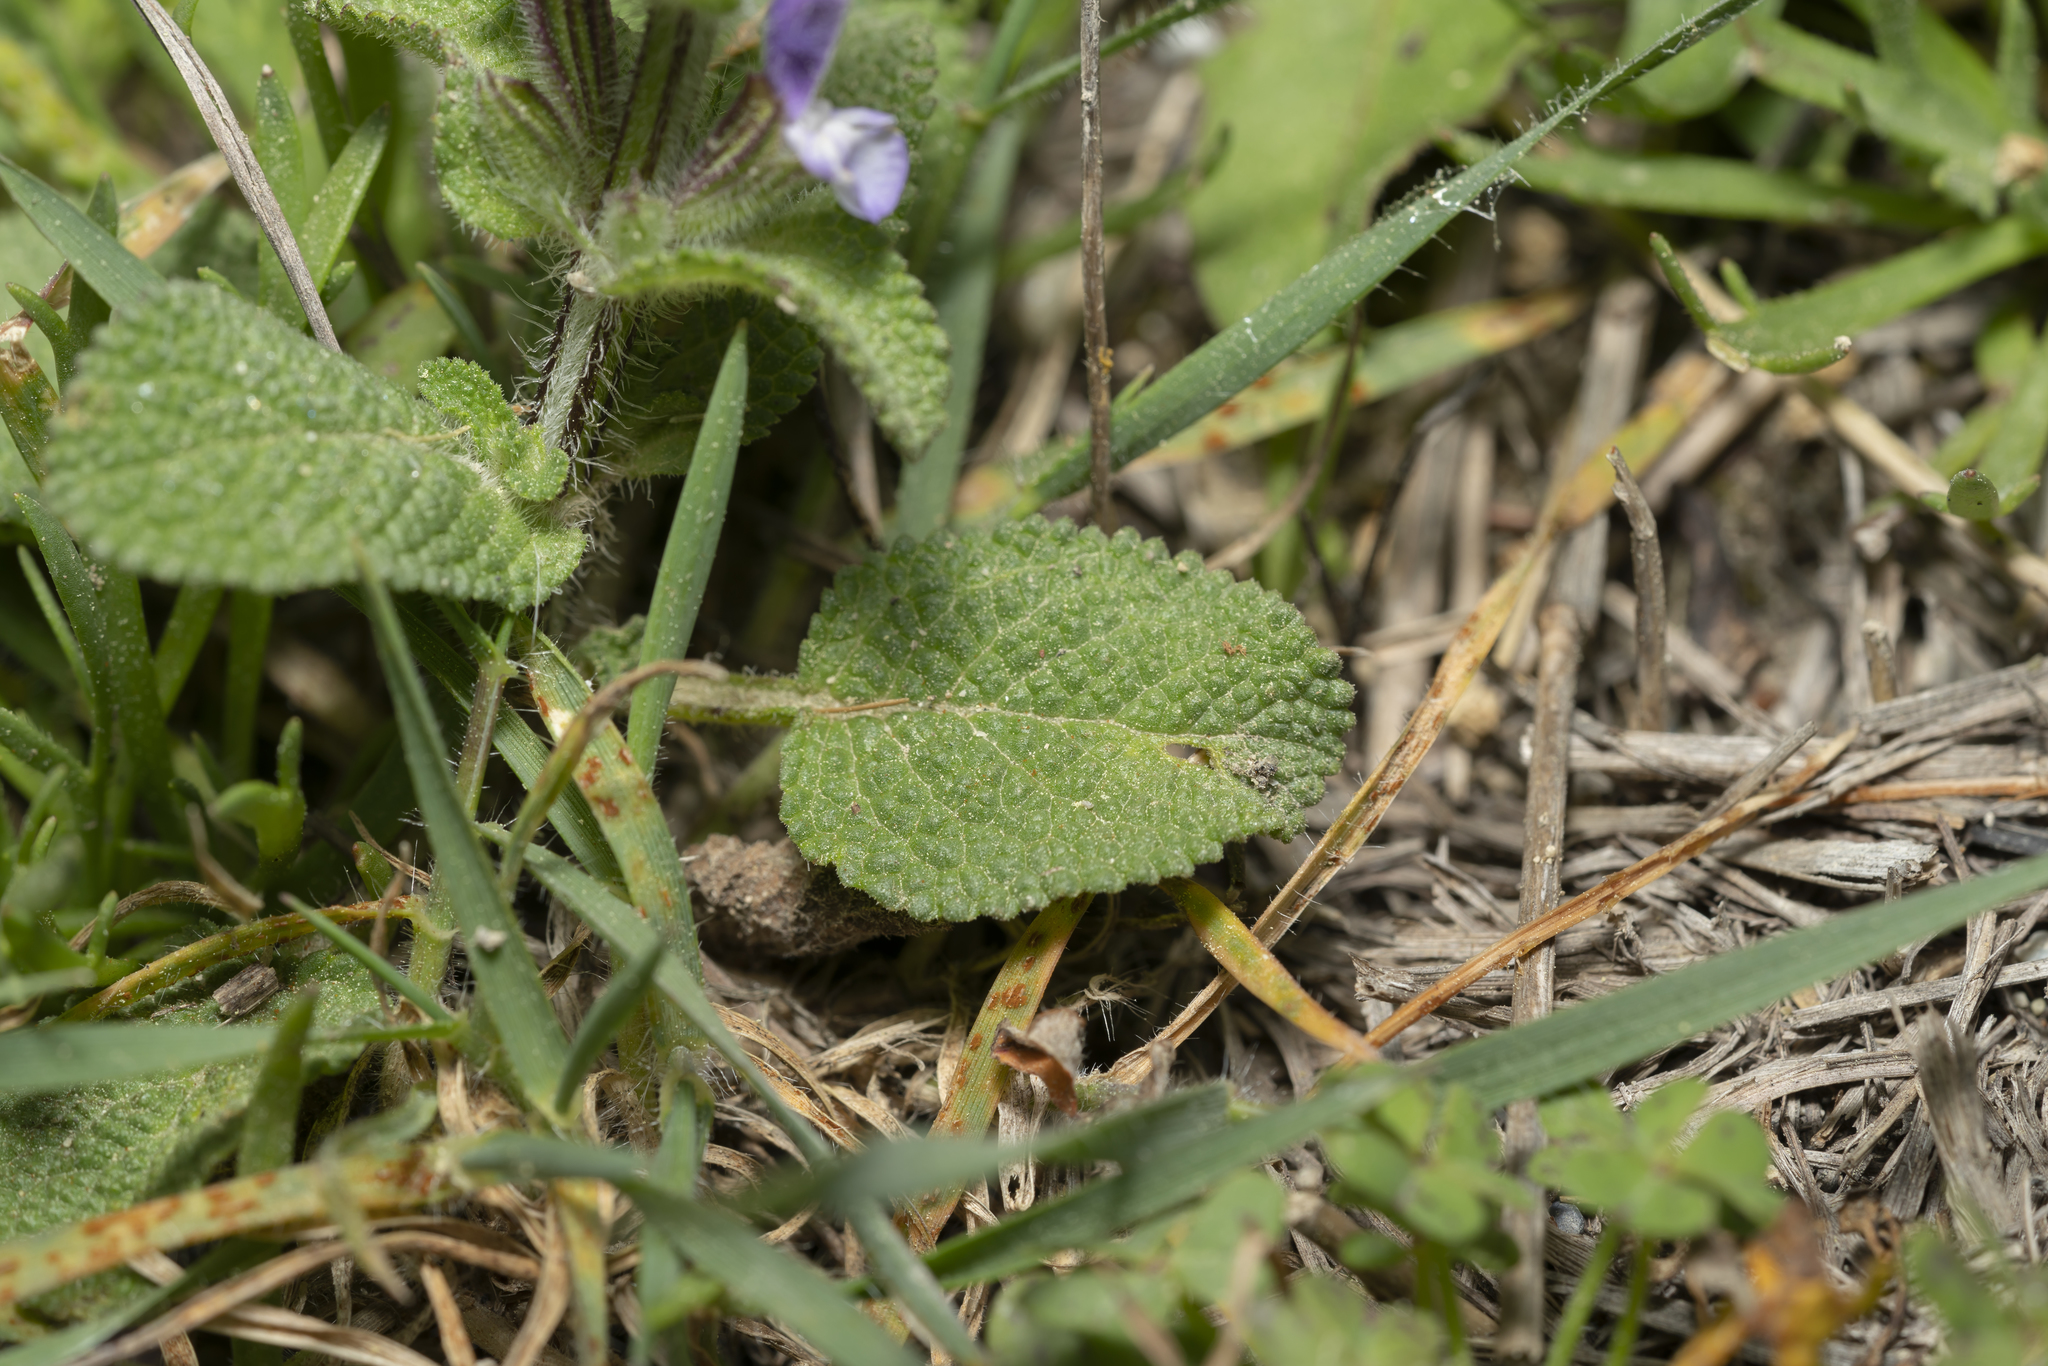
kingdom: Plantae
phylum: Tracheophyta
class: Magnoliopsida
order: Lamiales
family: Lamiaceae
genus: Salvia
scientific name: Salvia viridis
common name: Annual clary
